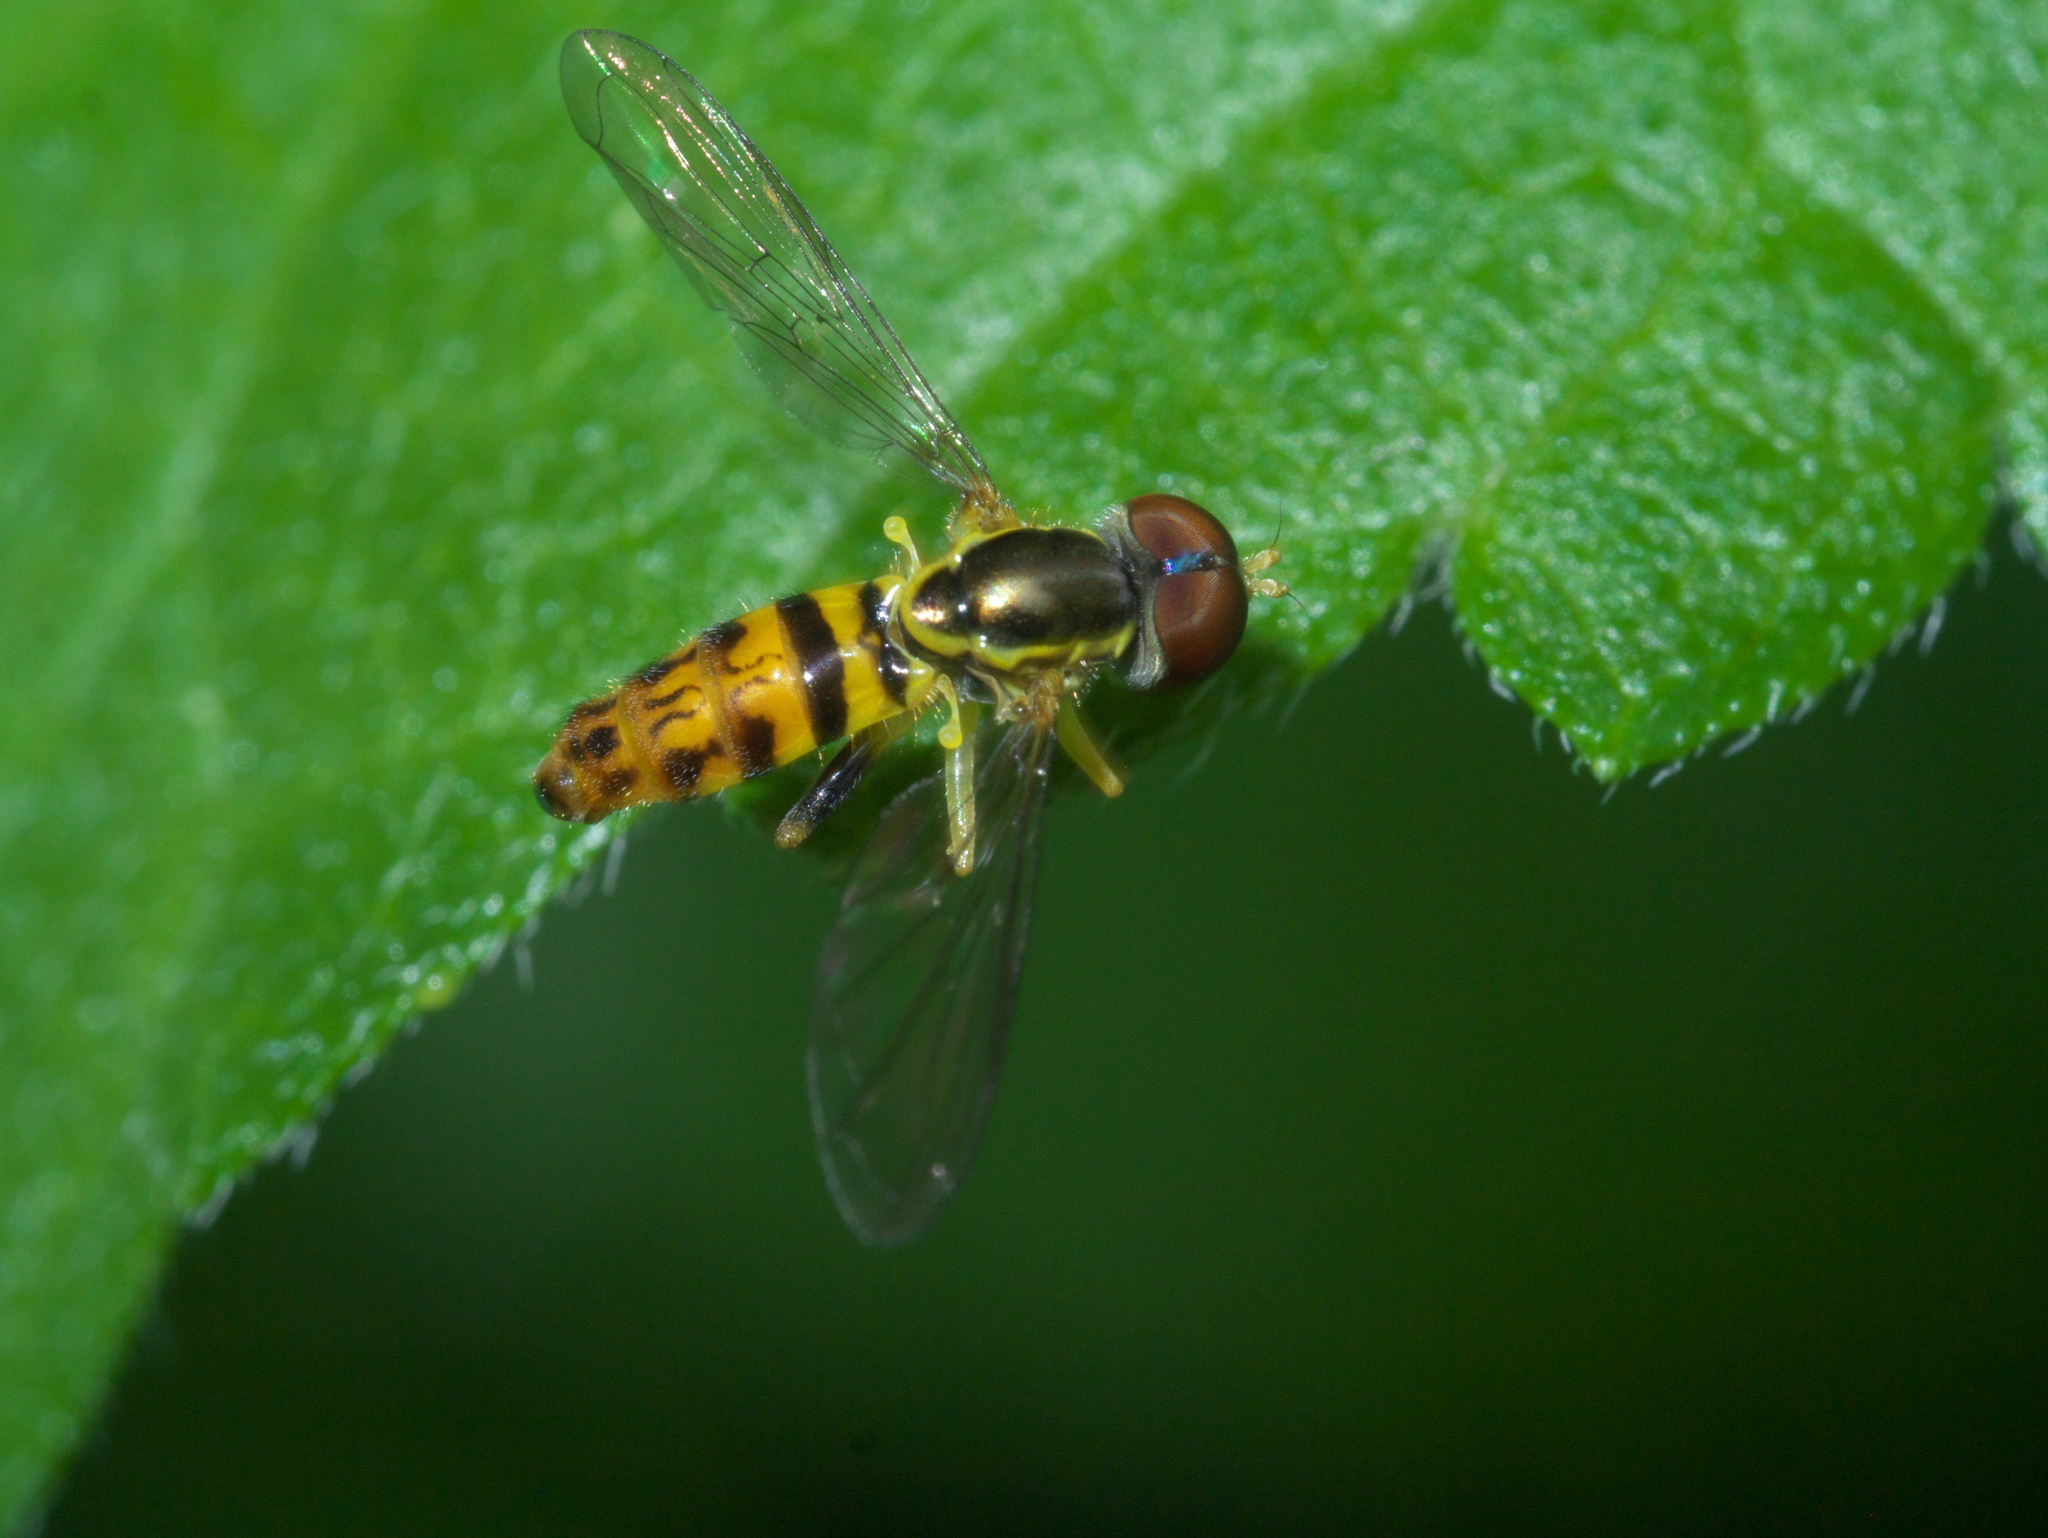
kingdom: Animalia
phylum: Arthropoda
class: Insecta
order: Diptera
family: Syrphidae
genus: Toxomerus
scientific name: Toxomerus geminatus
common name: Eastern calligrapher
